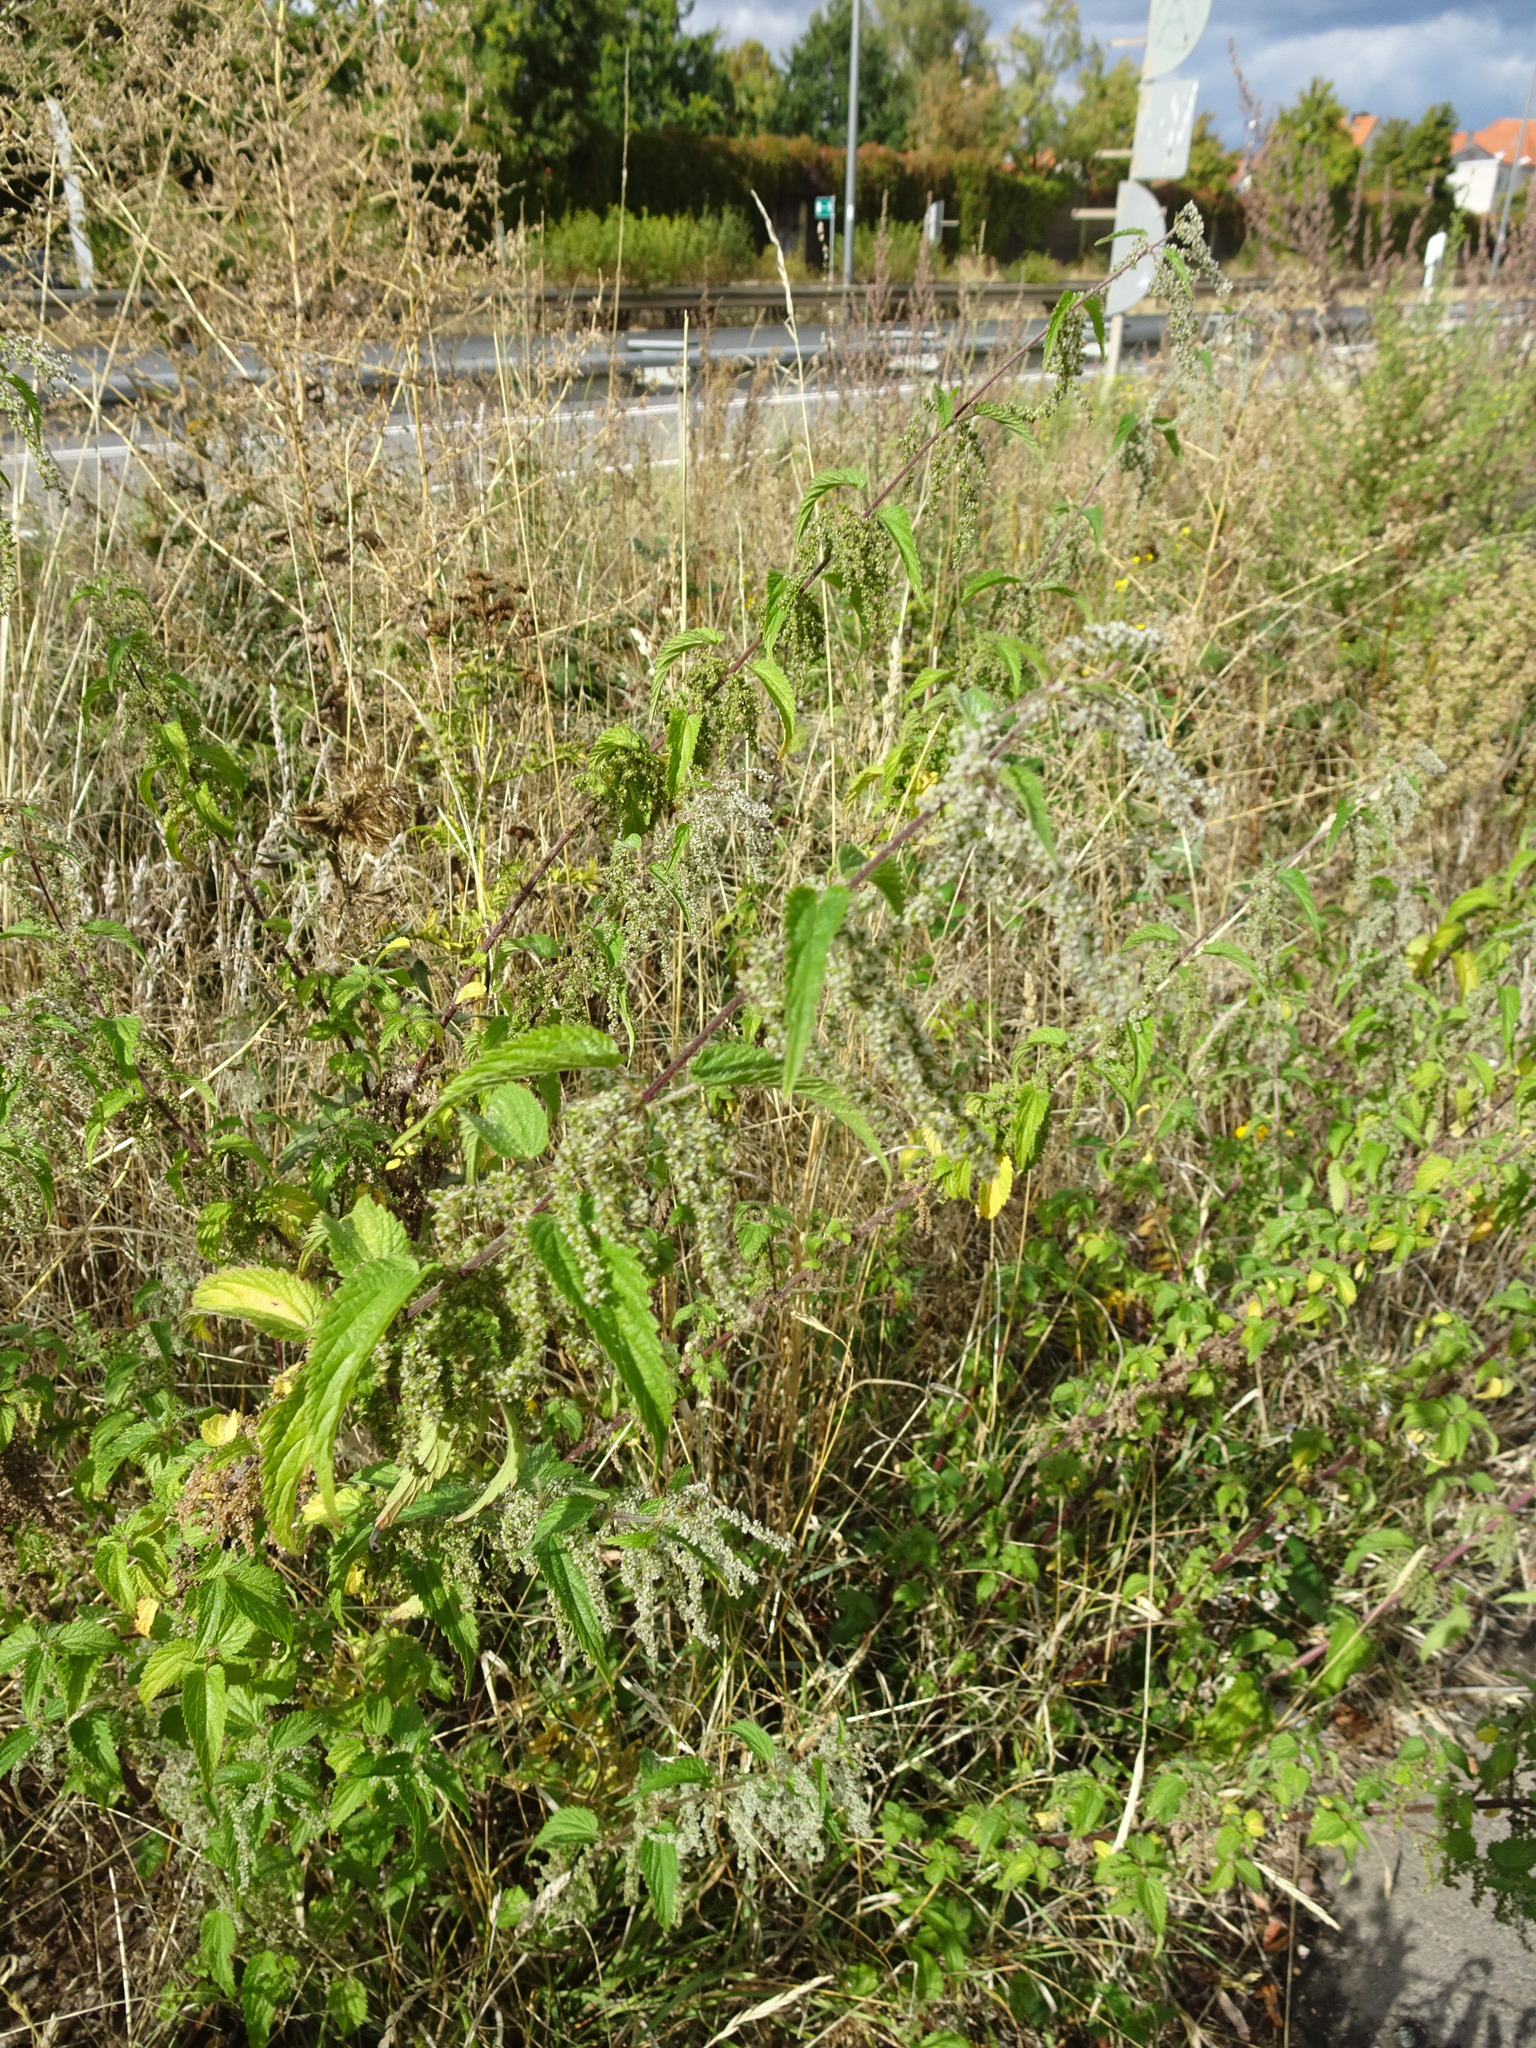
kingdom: Plantae
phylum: Tracheophyta
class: Magnoliopsida
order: Rosales
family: Urticaceae
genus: Urtica
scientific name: Urtica dioica
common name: Common nettle
